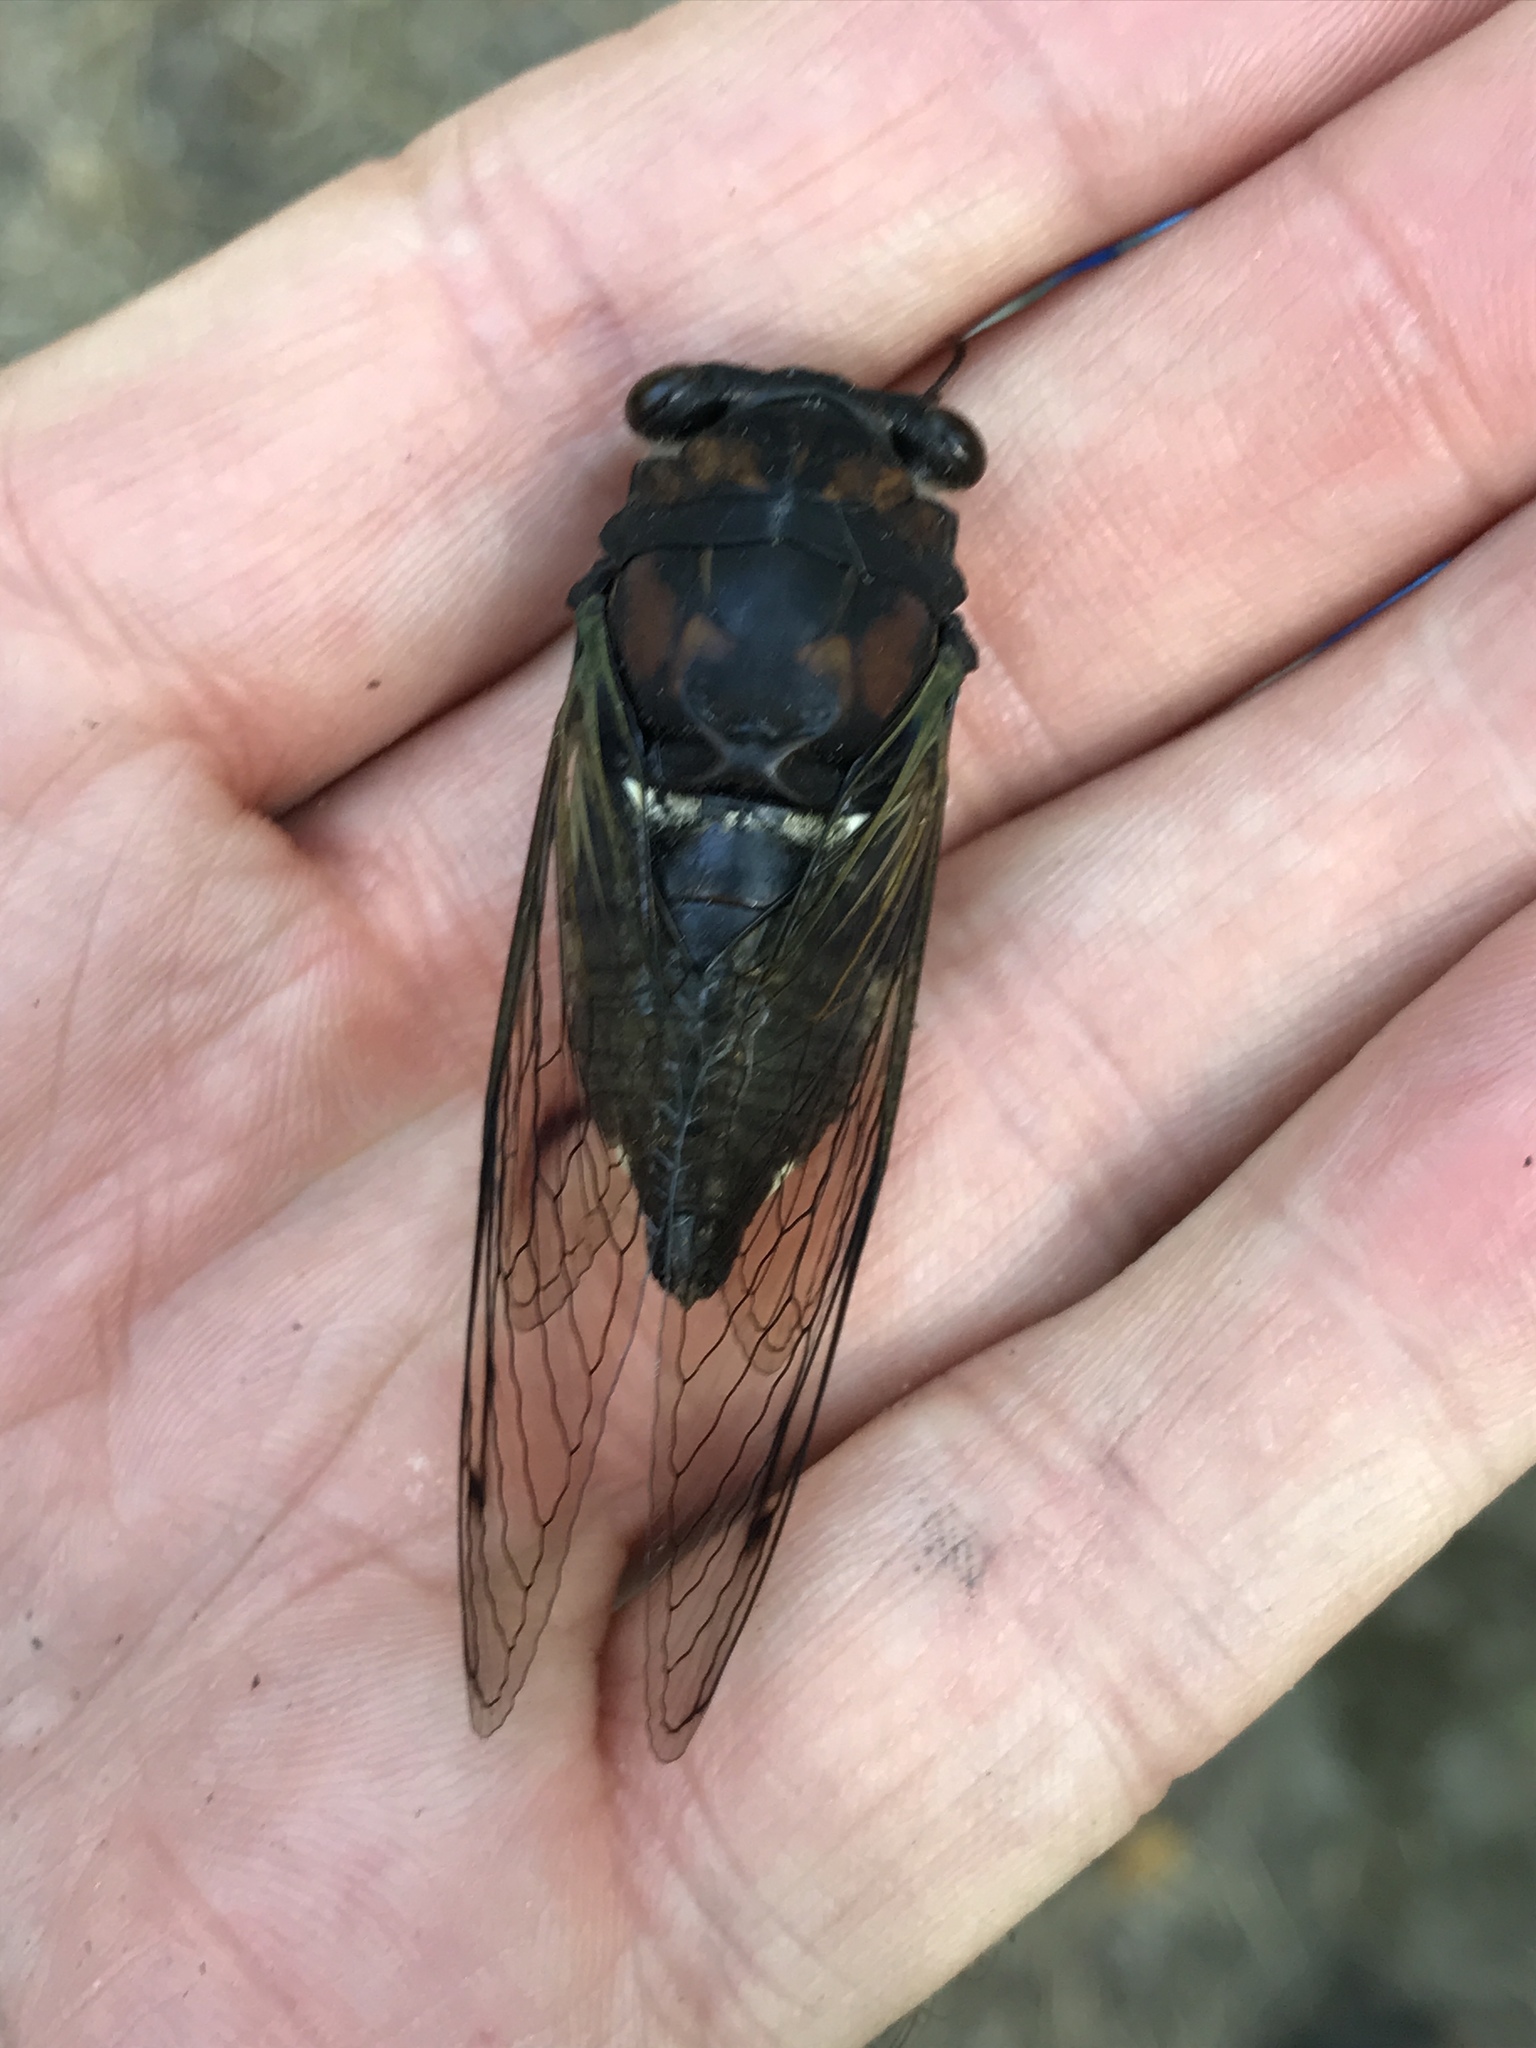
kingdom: Animalia
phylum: Arthropoda
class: Insecta
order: Hemiptera
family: Cicadidae
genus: Neotibicen
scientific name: Neotibicen lyricen
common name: Lyric cicada
